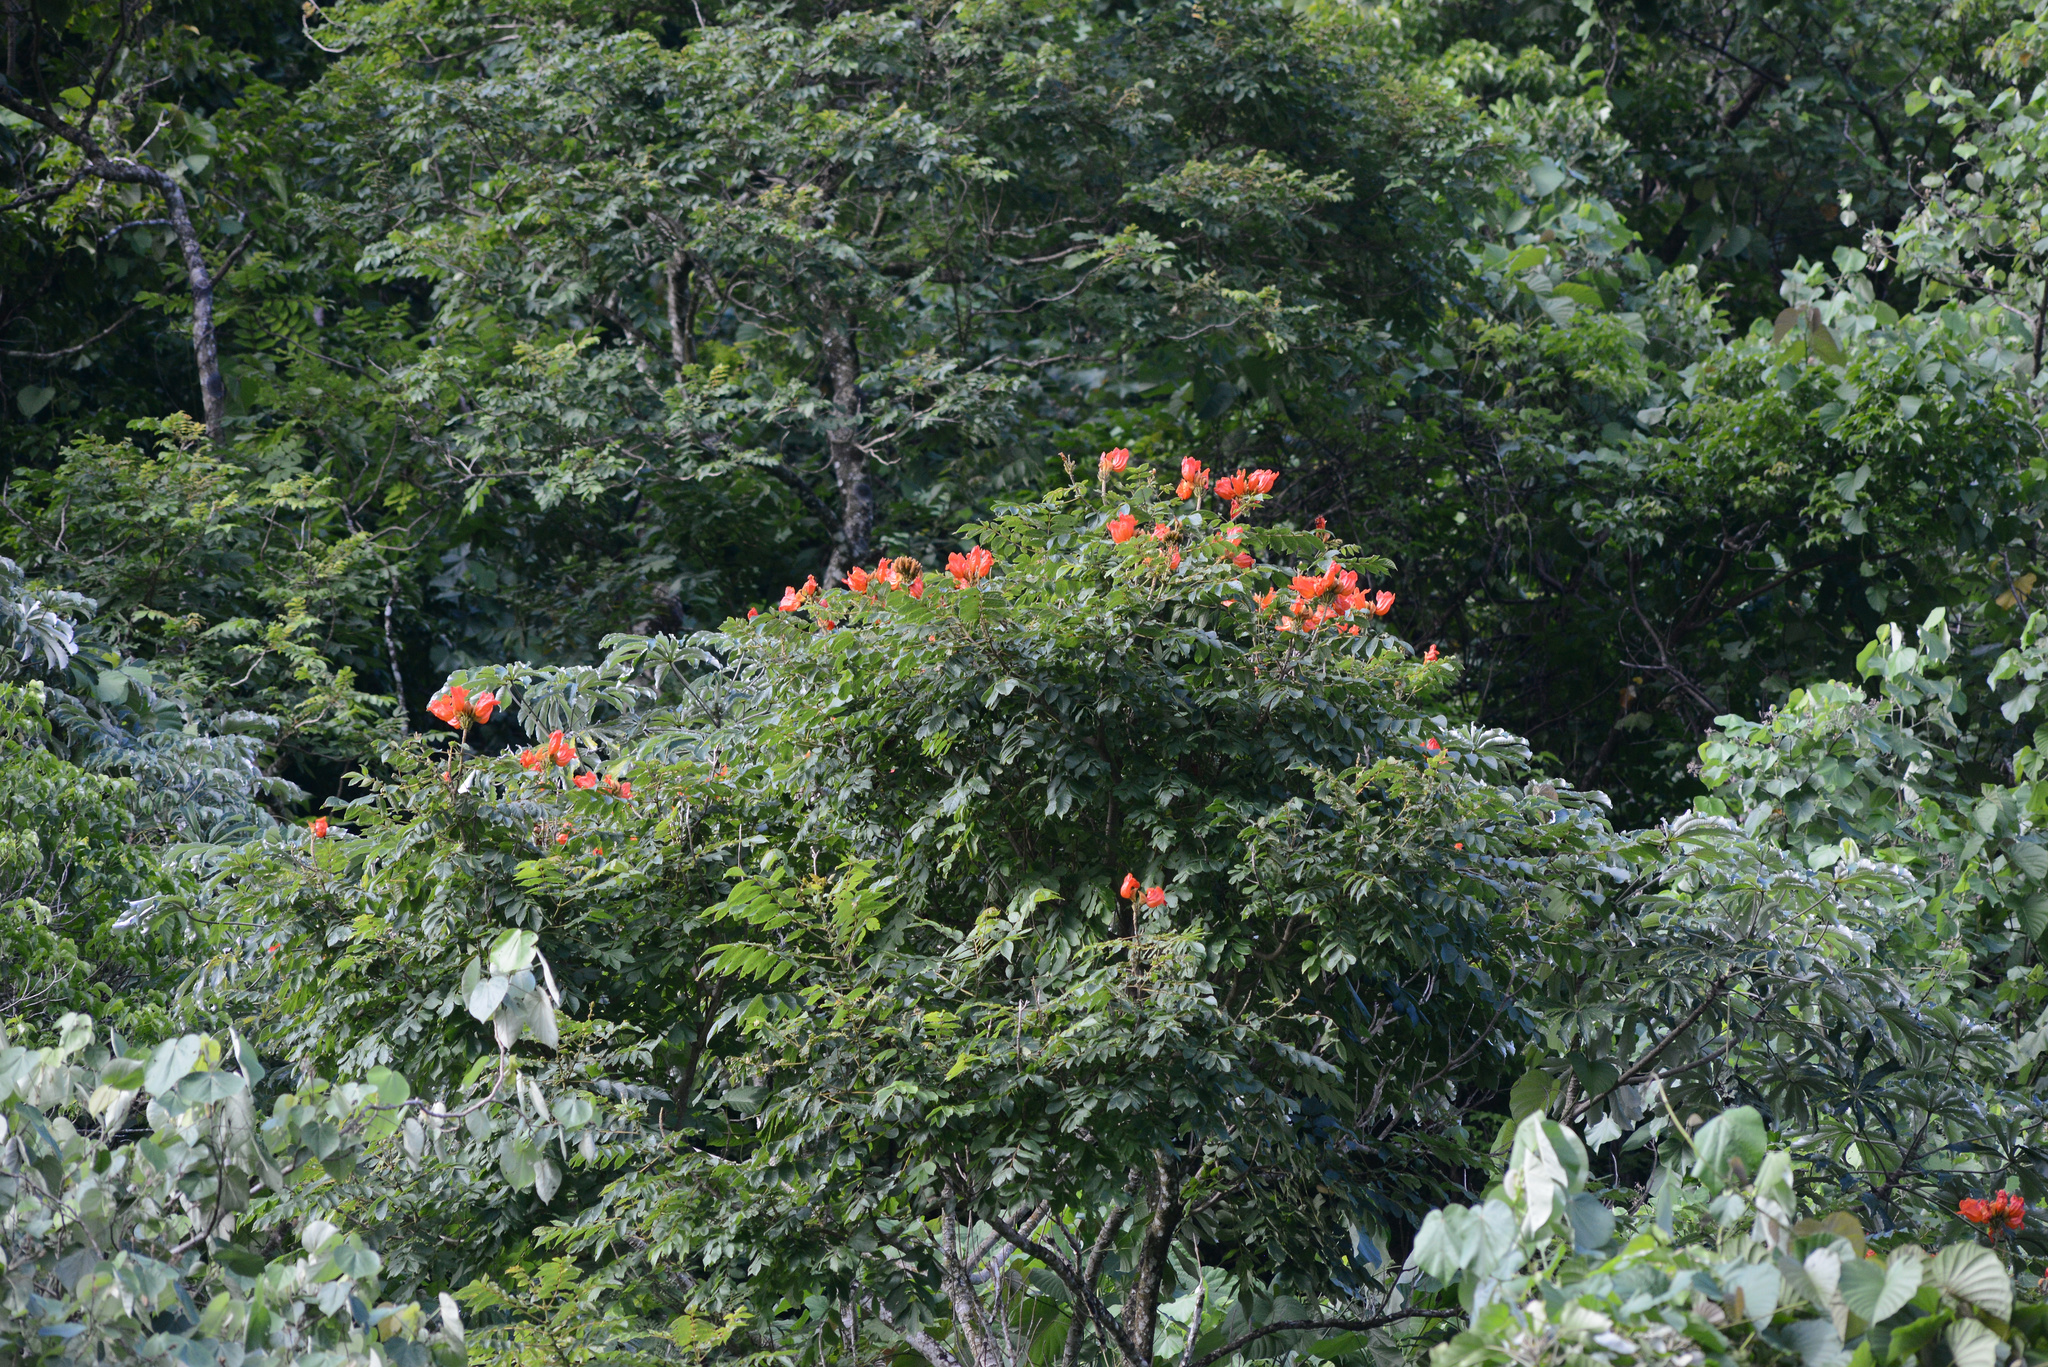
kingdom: Plantae
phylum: Tracheophyta
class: Magnoliopsida
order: Lamiales
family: Bignoniaceae
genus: Spathodea
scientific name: Spathodea campanulata
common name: African tuliptree
